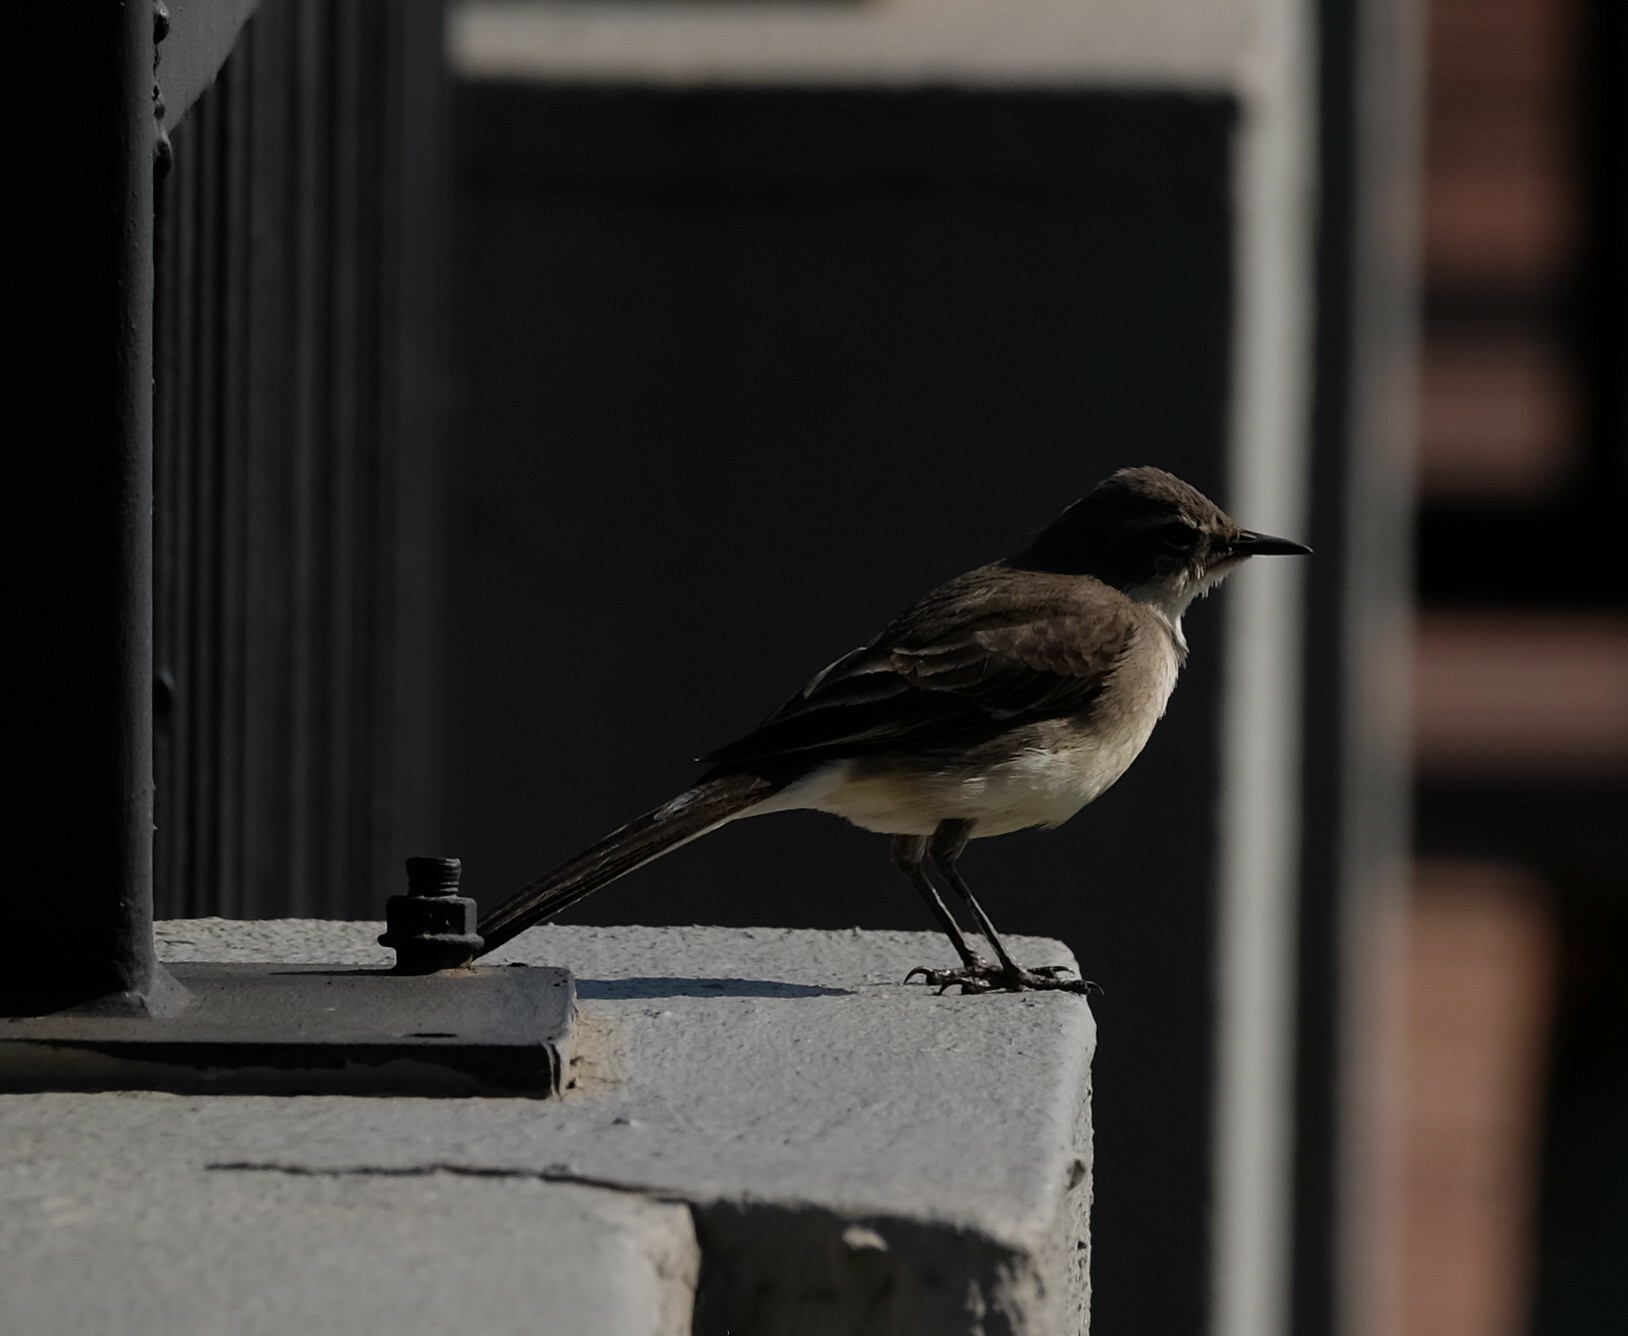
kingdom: Animalia
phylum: Chordata
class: Aves
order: Passeriformes
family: Motacillidae
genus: Motacilla
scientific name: Motacilla capensis
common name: Cape wagtail
